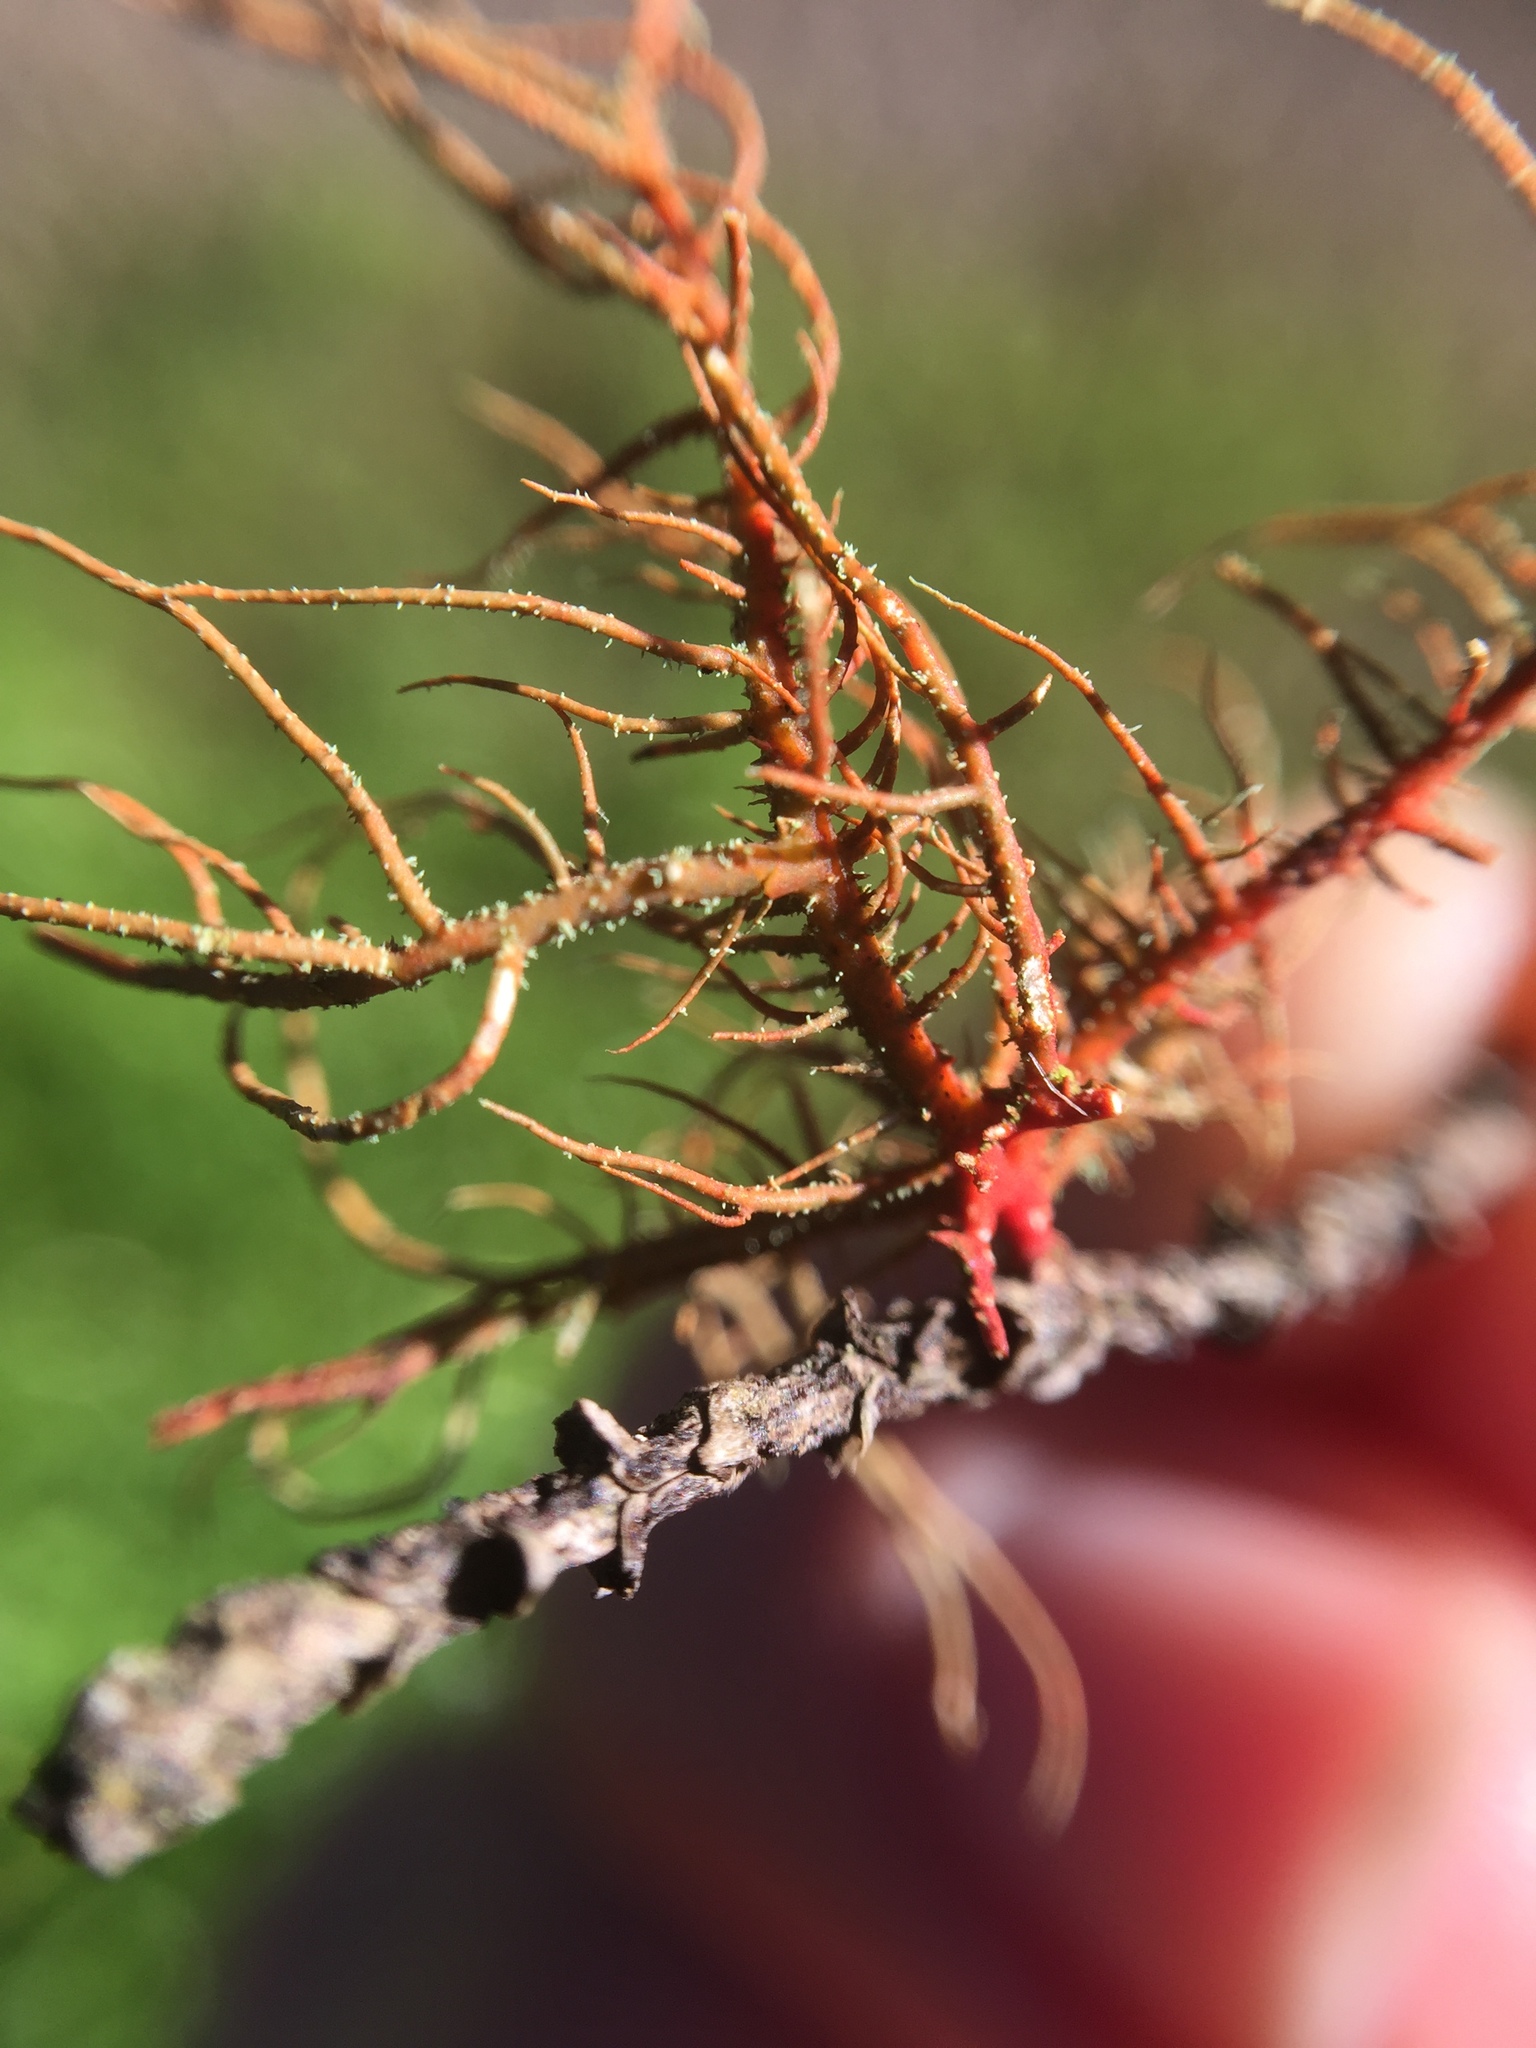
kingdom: Fungi
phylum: Ascomycota
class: Lecanoromycetes
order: Lecanorales
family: Parmeliaceae
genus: Usnea
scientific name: Usnea rubicunda
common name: Red beard lichen
